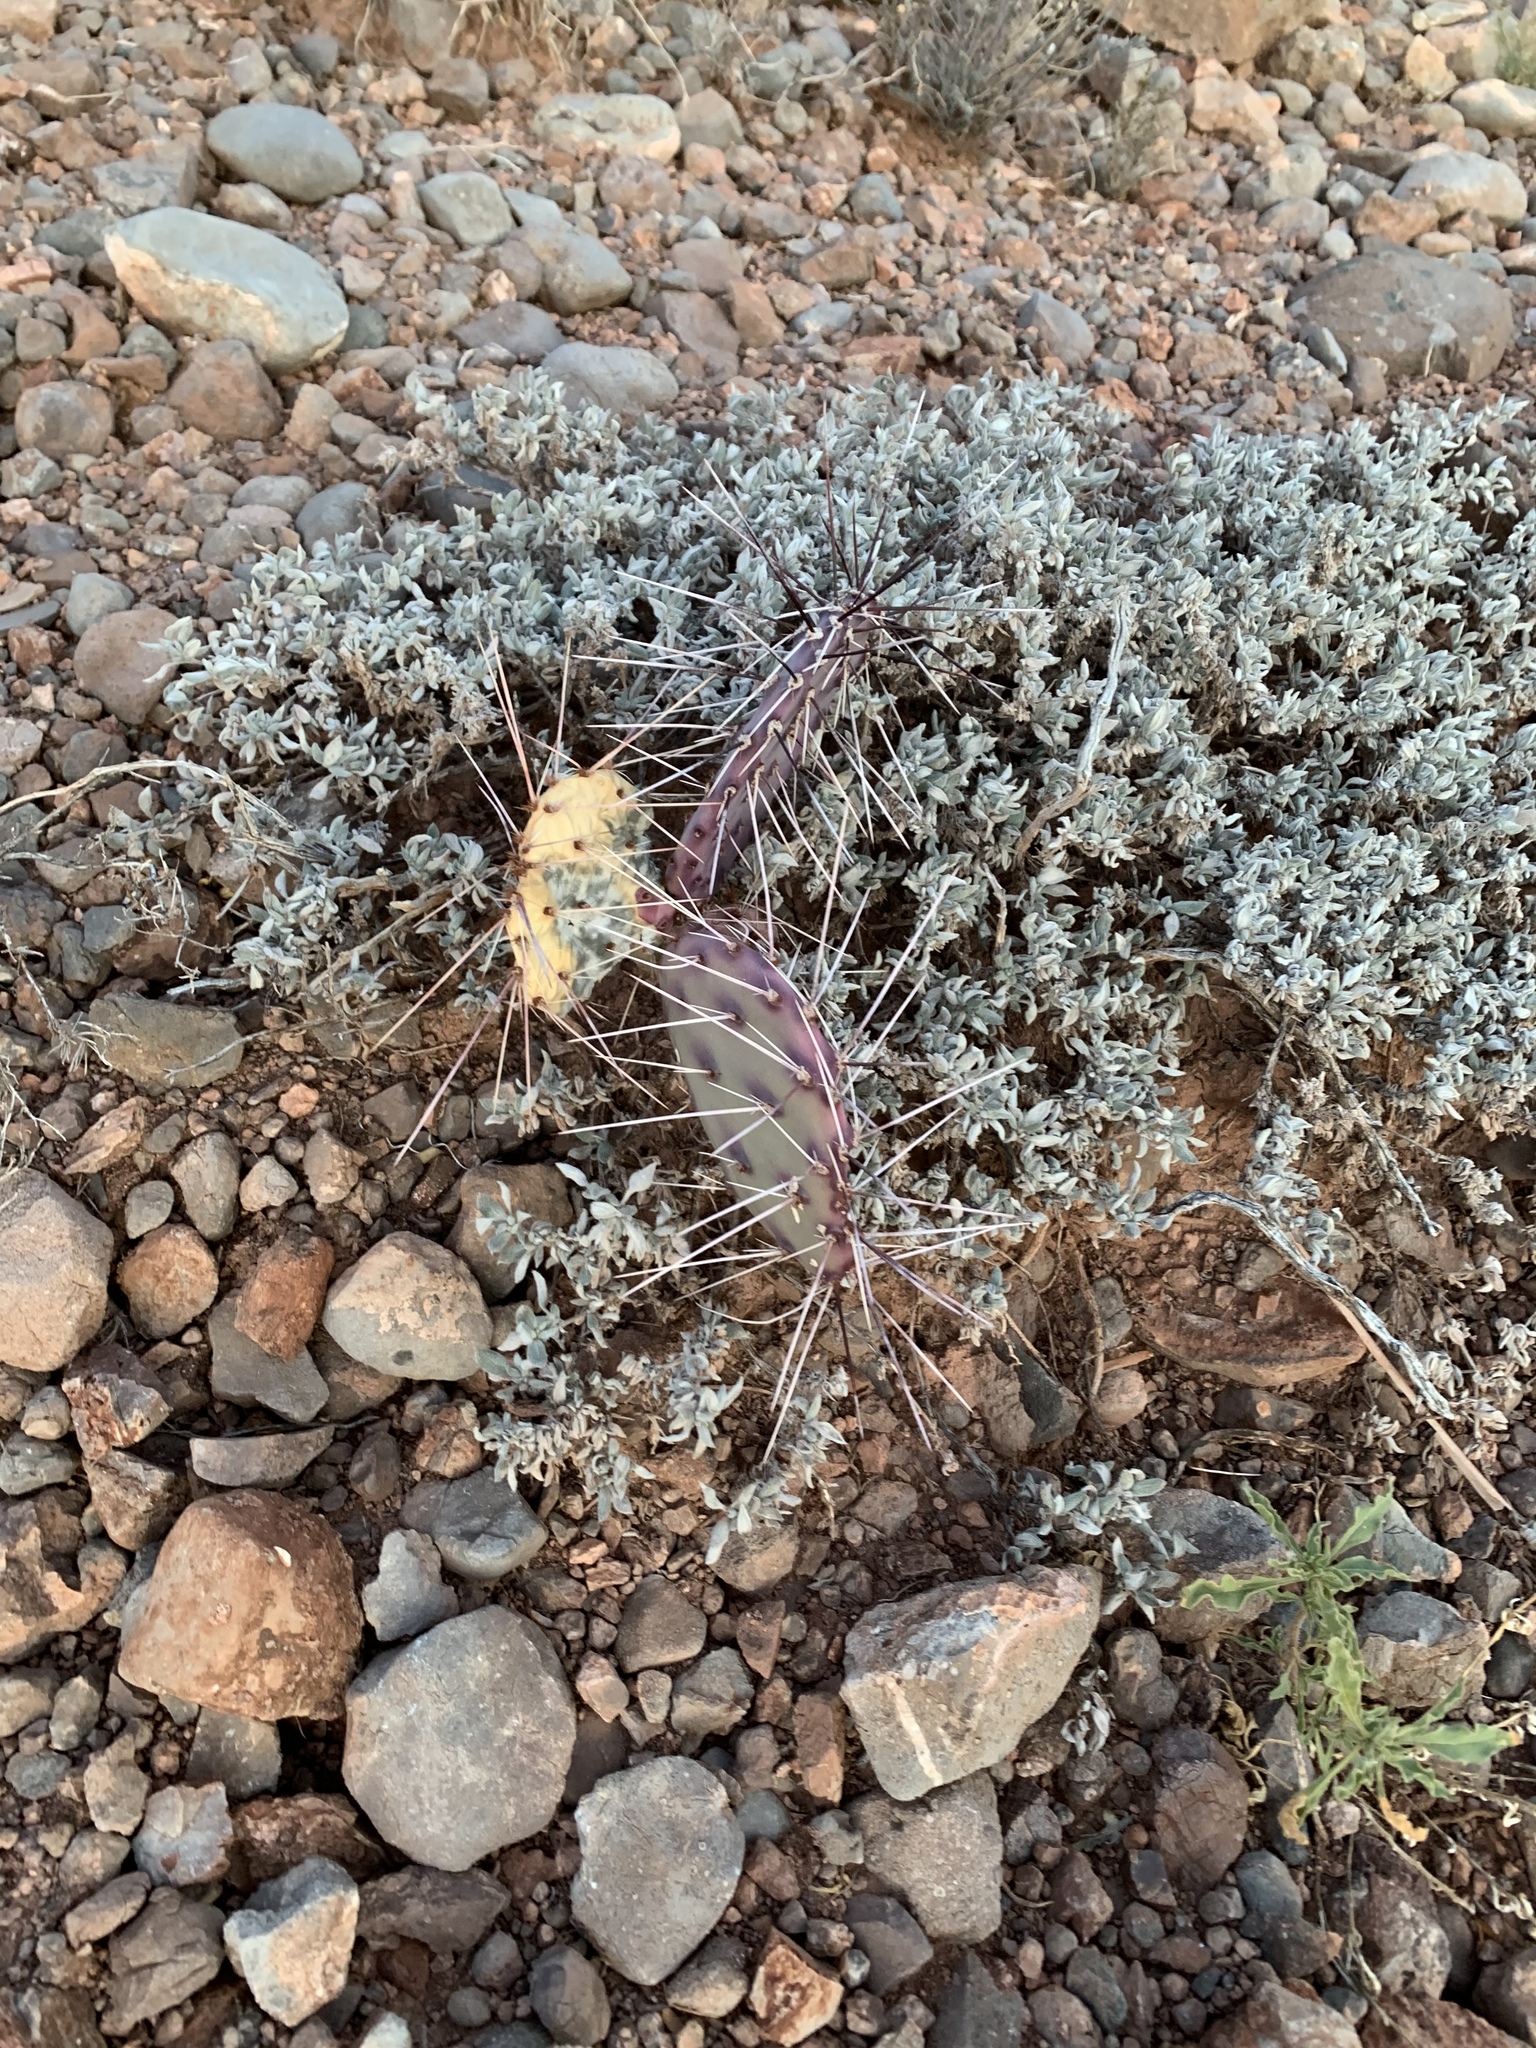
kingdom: Plantae
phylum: Tracheophyta
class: Magnoliopsida
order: Caryophyllales
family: Cactaceae
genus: Opuntia
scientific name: Opuntia macrocentra
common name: Purple prickly-pear
